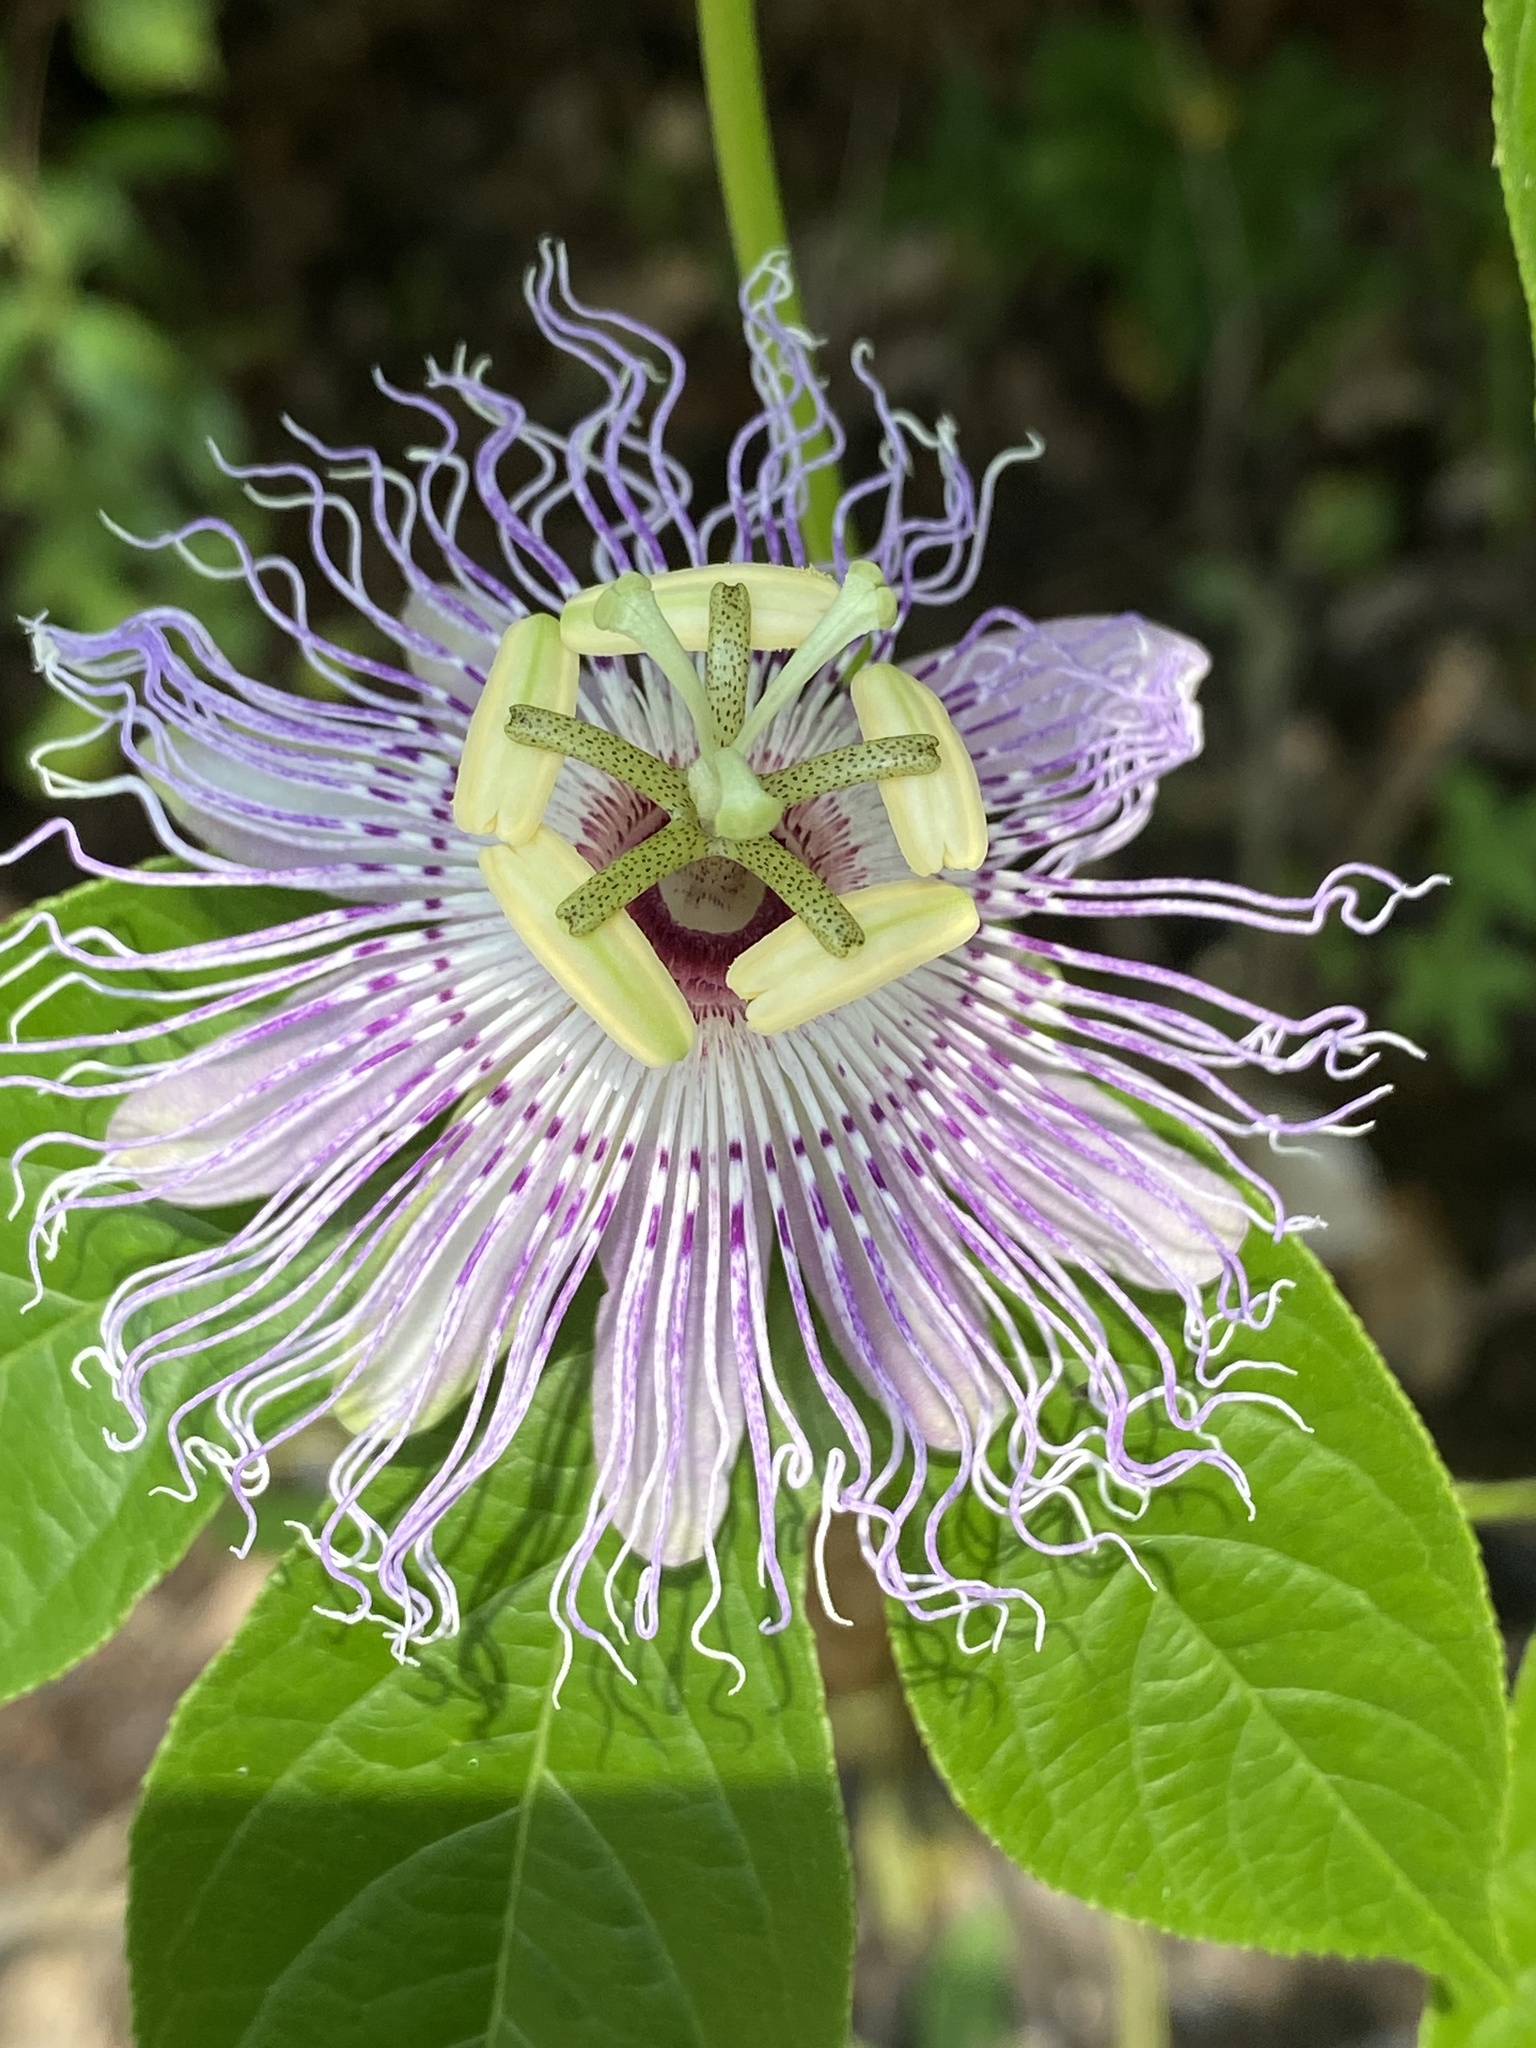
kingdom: Plantae
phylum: Tracheophyta
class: Magnoliopsida
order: Malpighiales
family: Passifloraceae
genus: Passiflora
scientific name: Passiflora incarnata
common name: Apricot-vine
